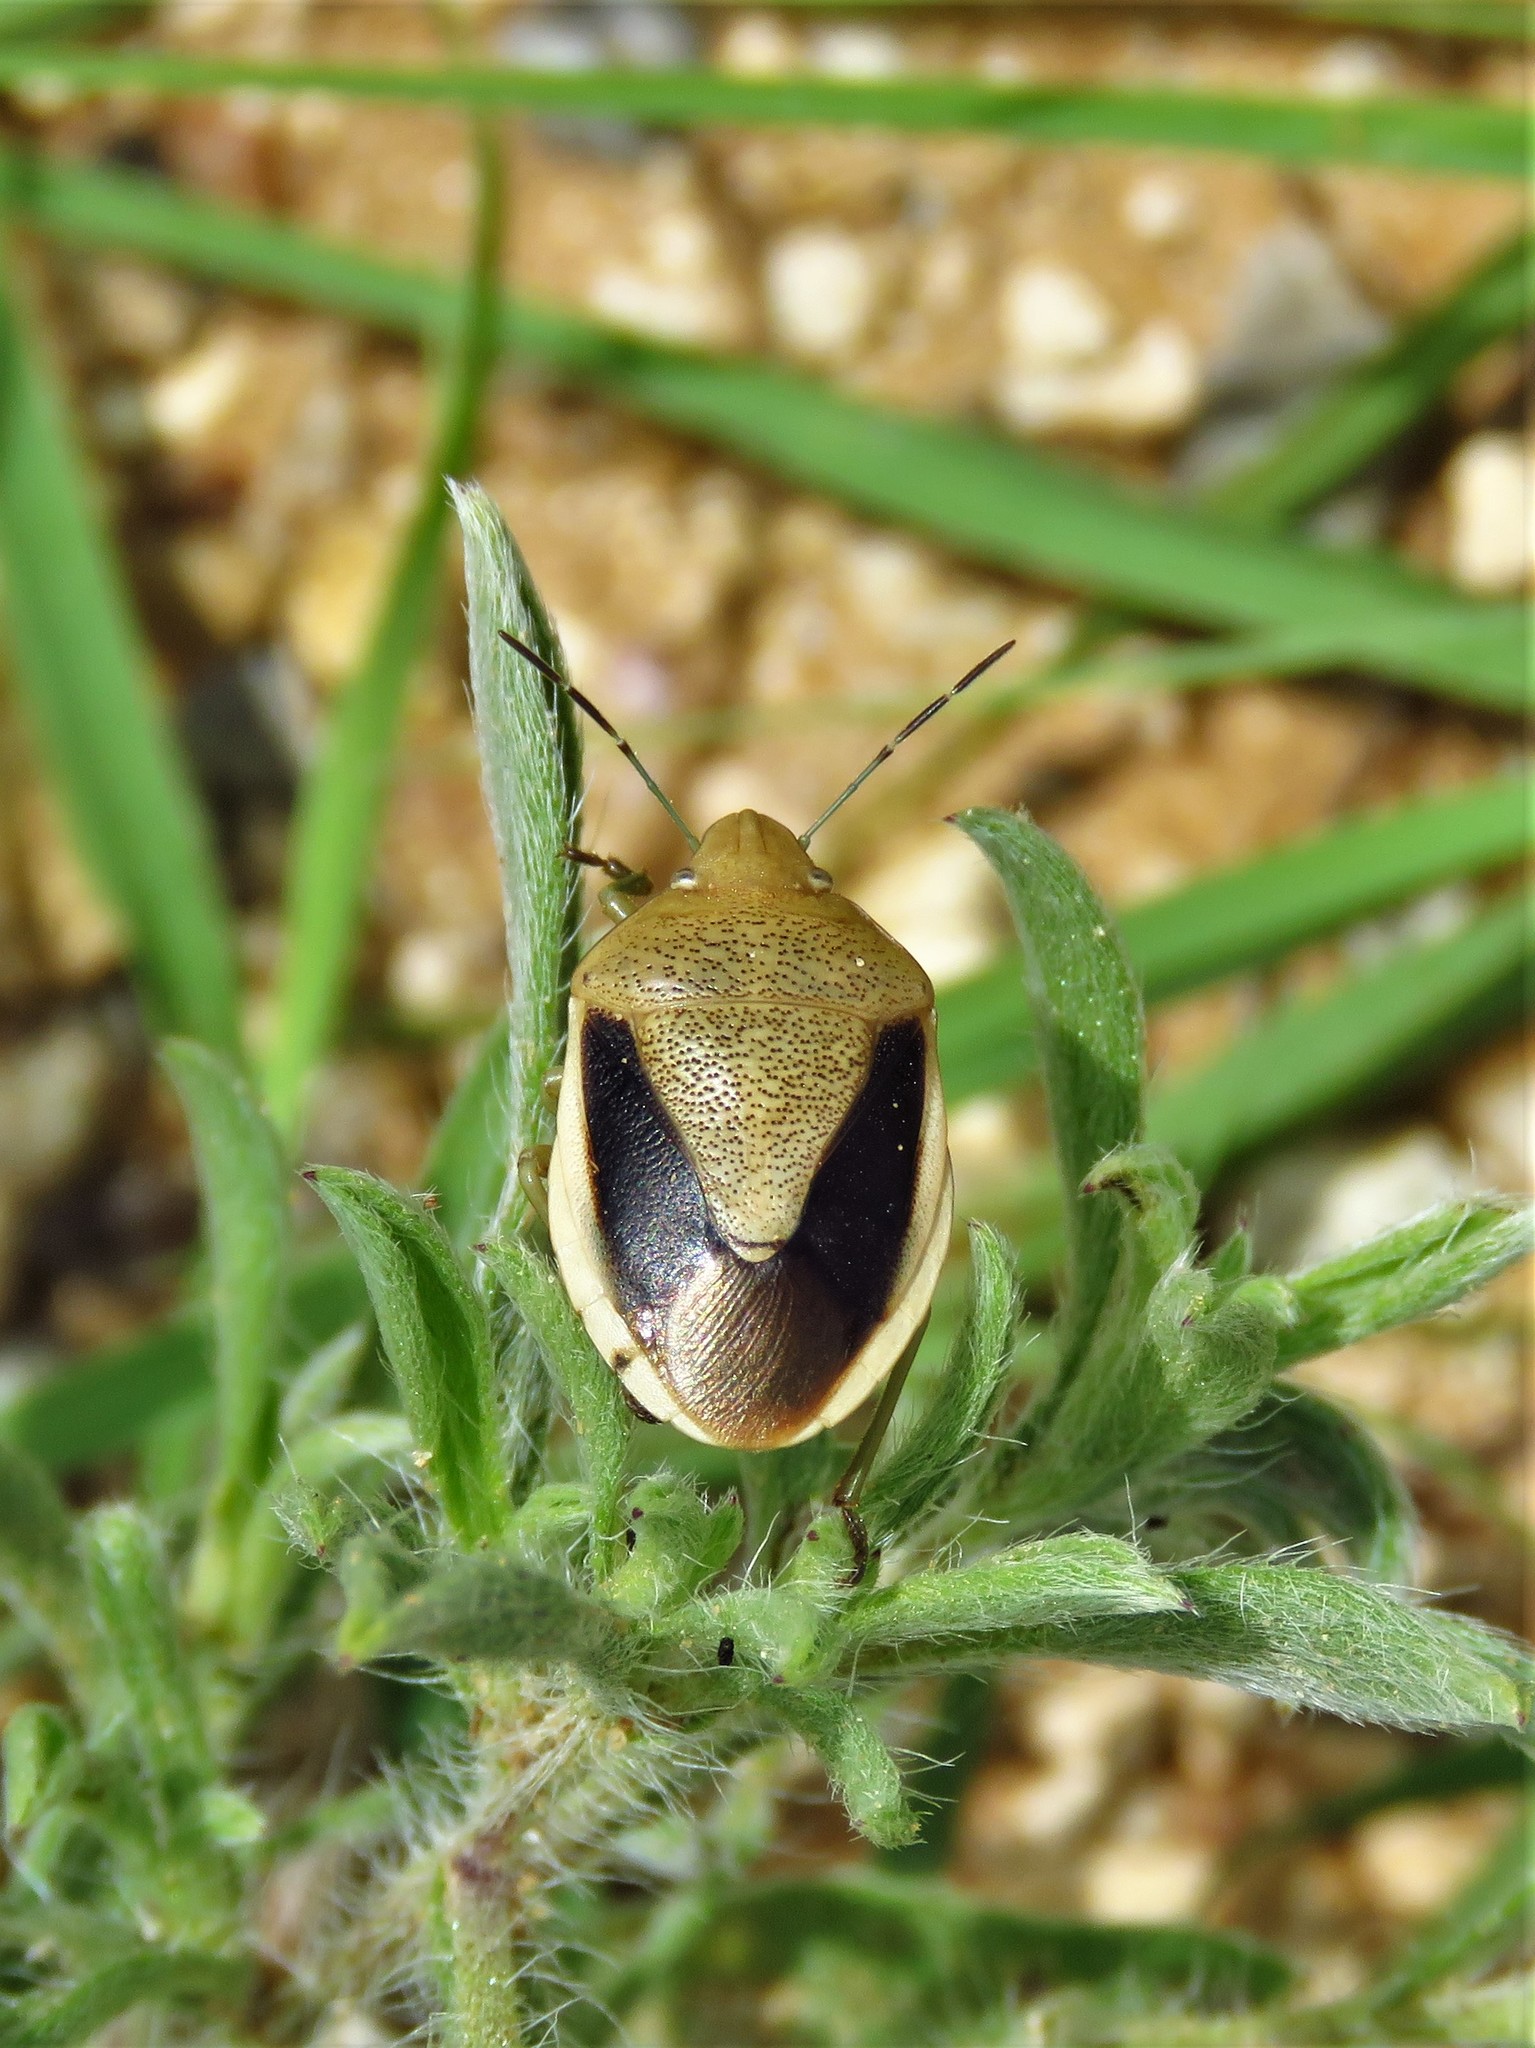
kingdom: Animalia
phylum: Arthropoda
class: Insecta
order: Hemiptera
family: Pentatomidae
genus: Chlorochroa
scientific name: Chlorochroa osborni
